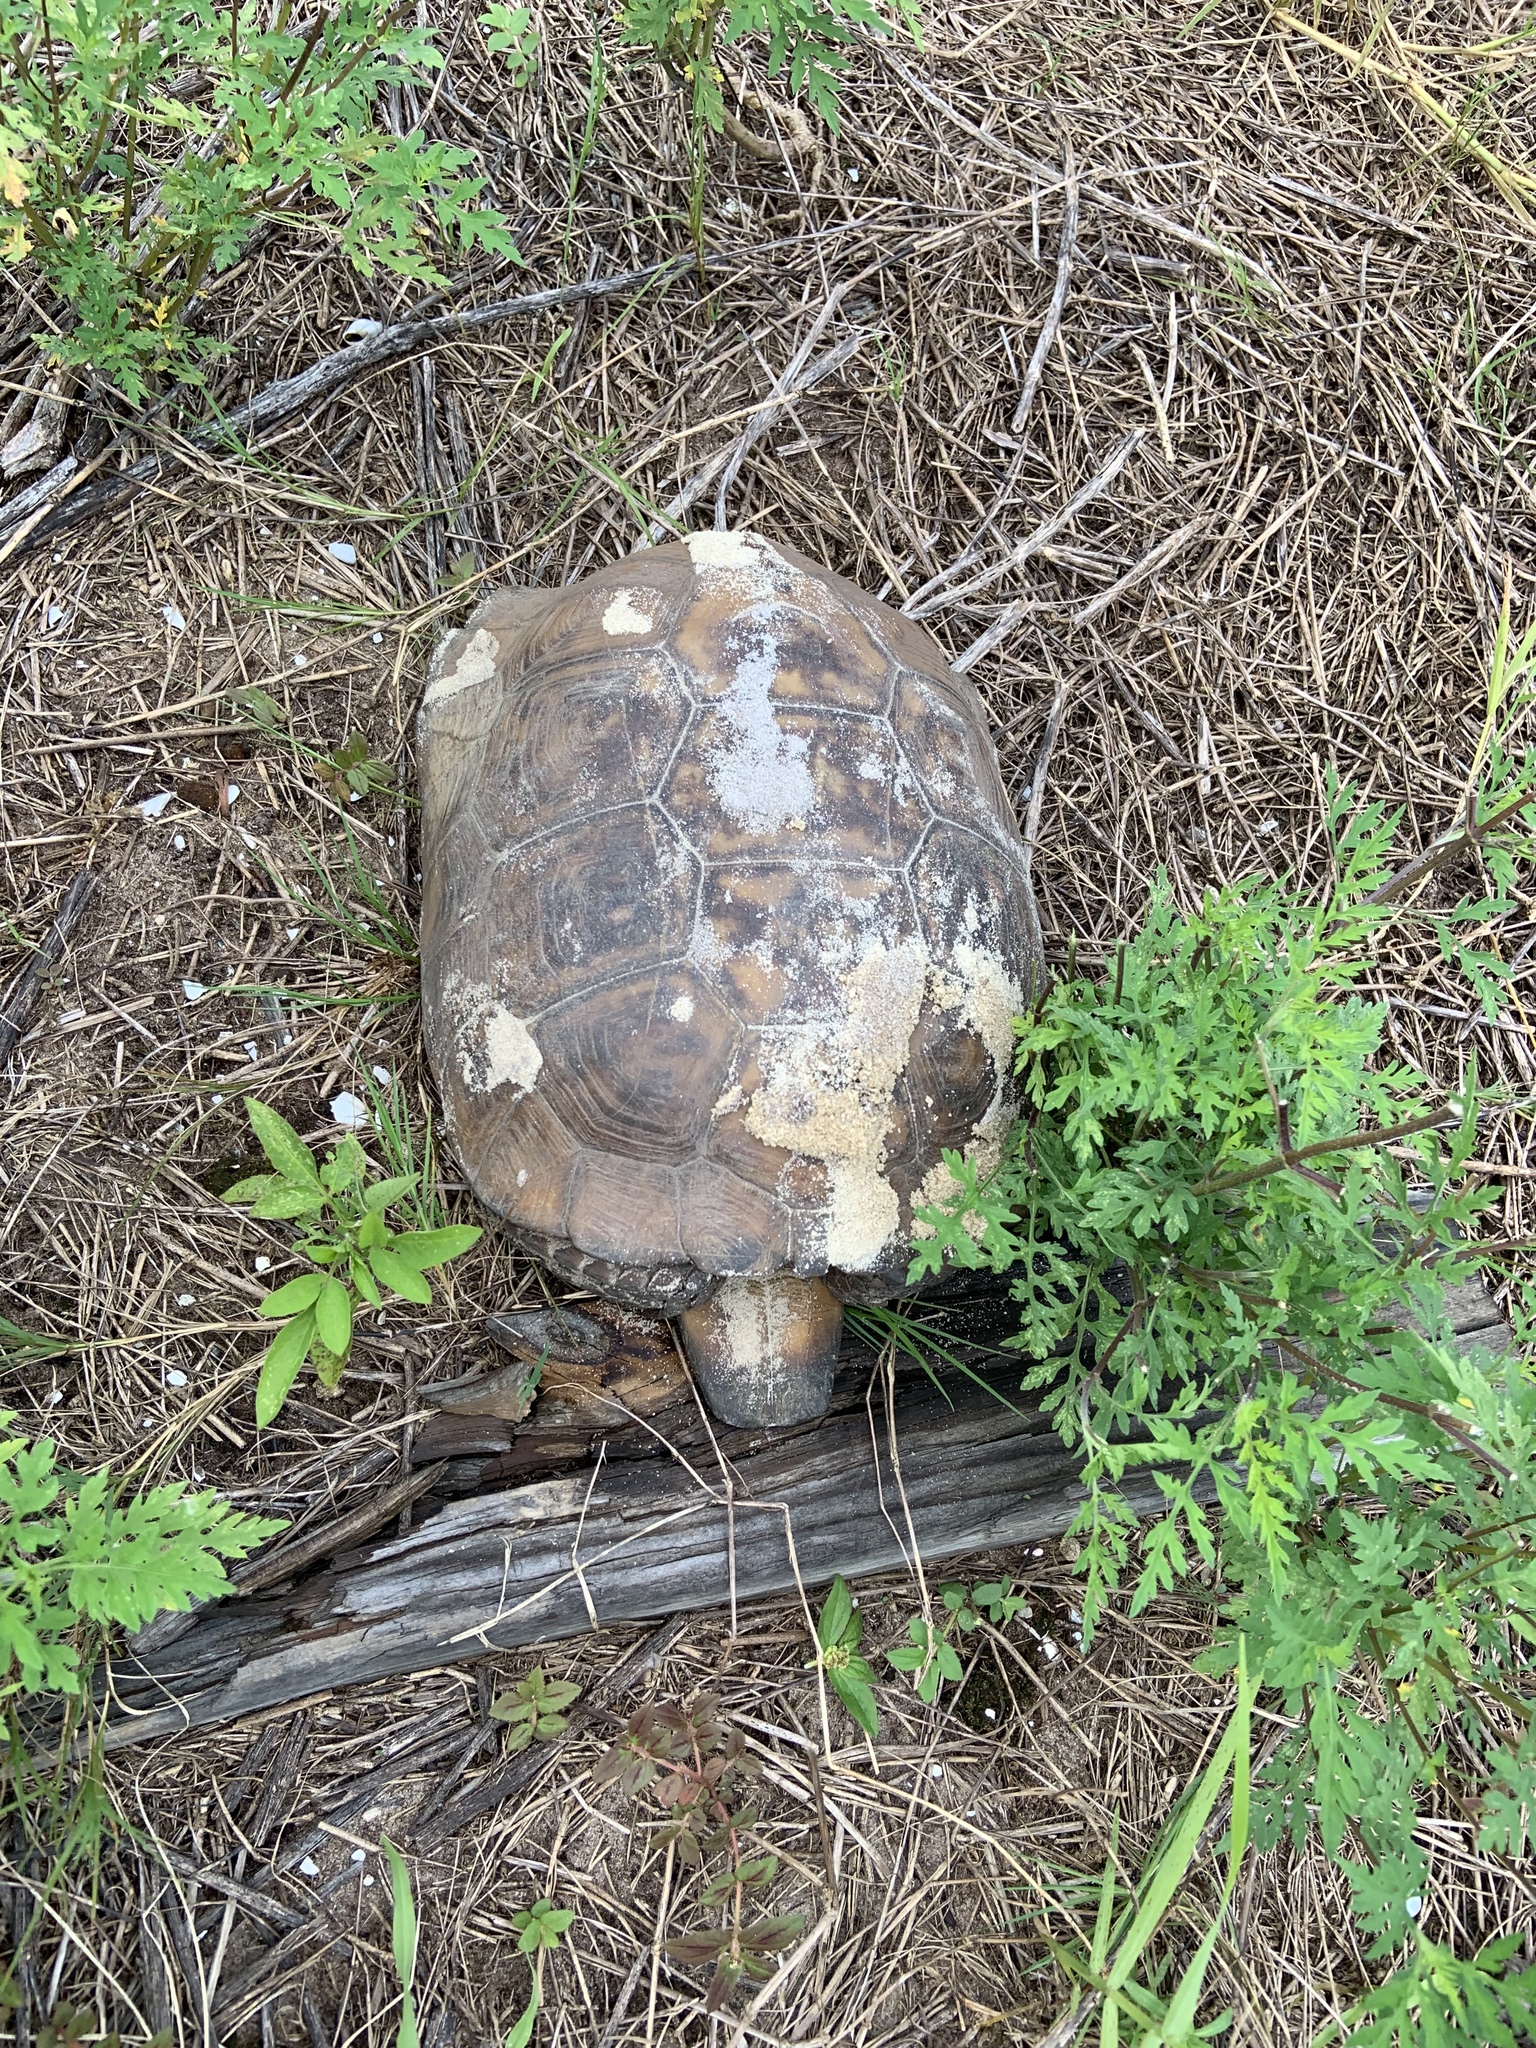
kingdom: Animalia
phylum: Chordata
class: Testudines
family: Testudinidae
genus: Gopherus
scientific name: Gopherus polyphemus
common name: Florida gopher tortoise
